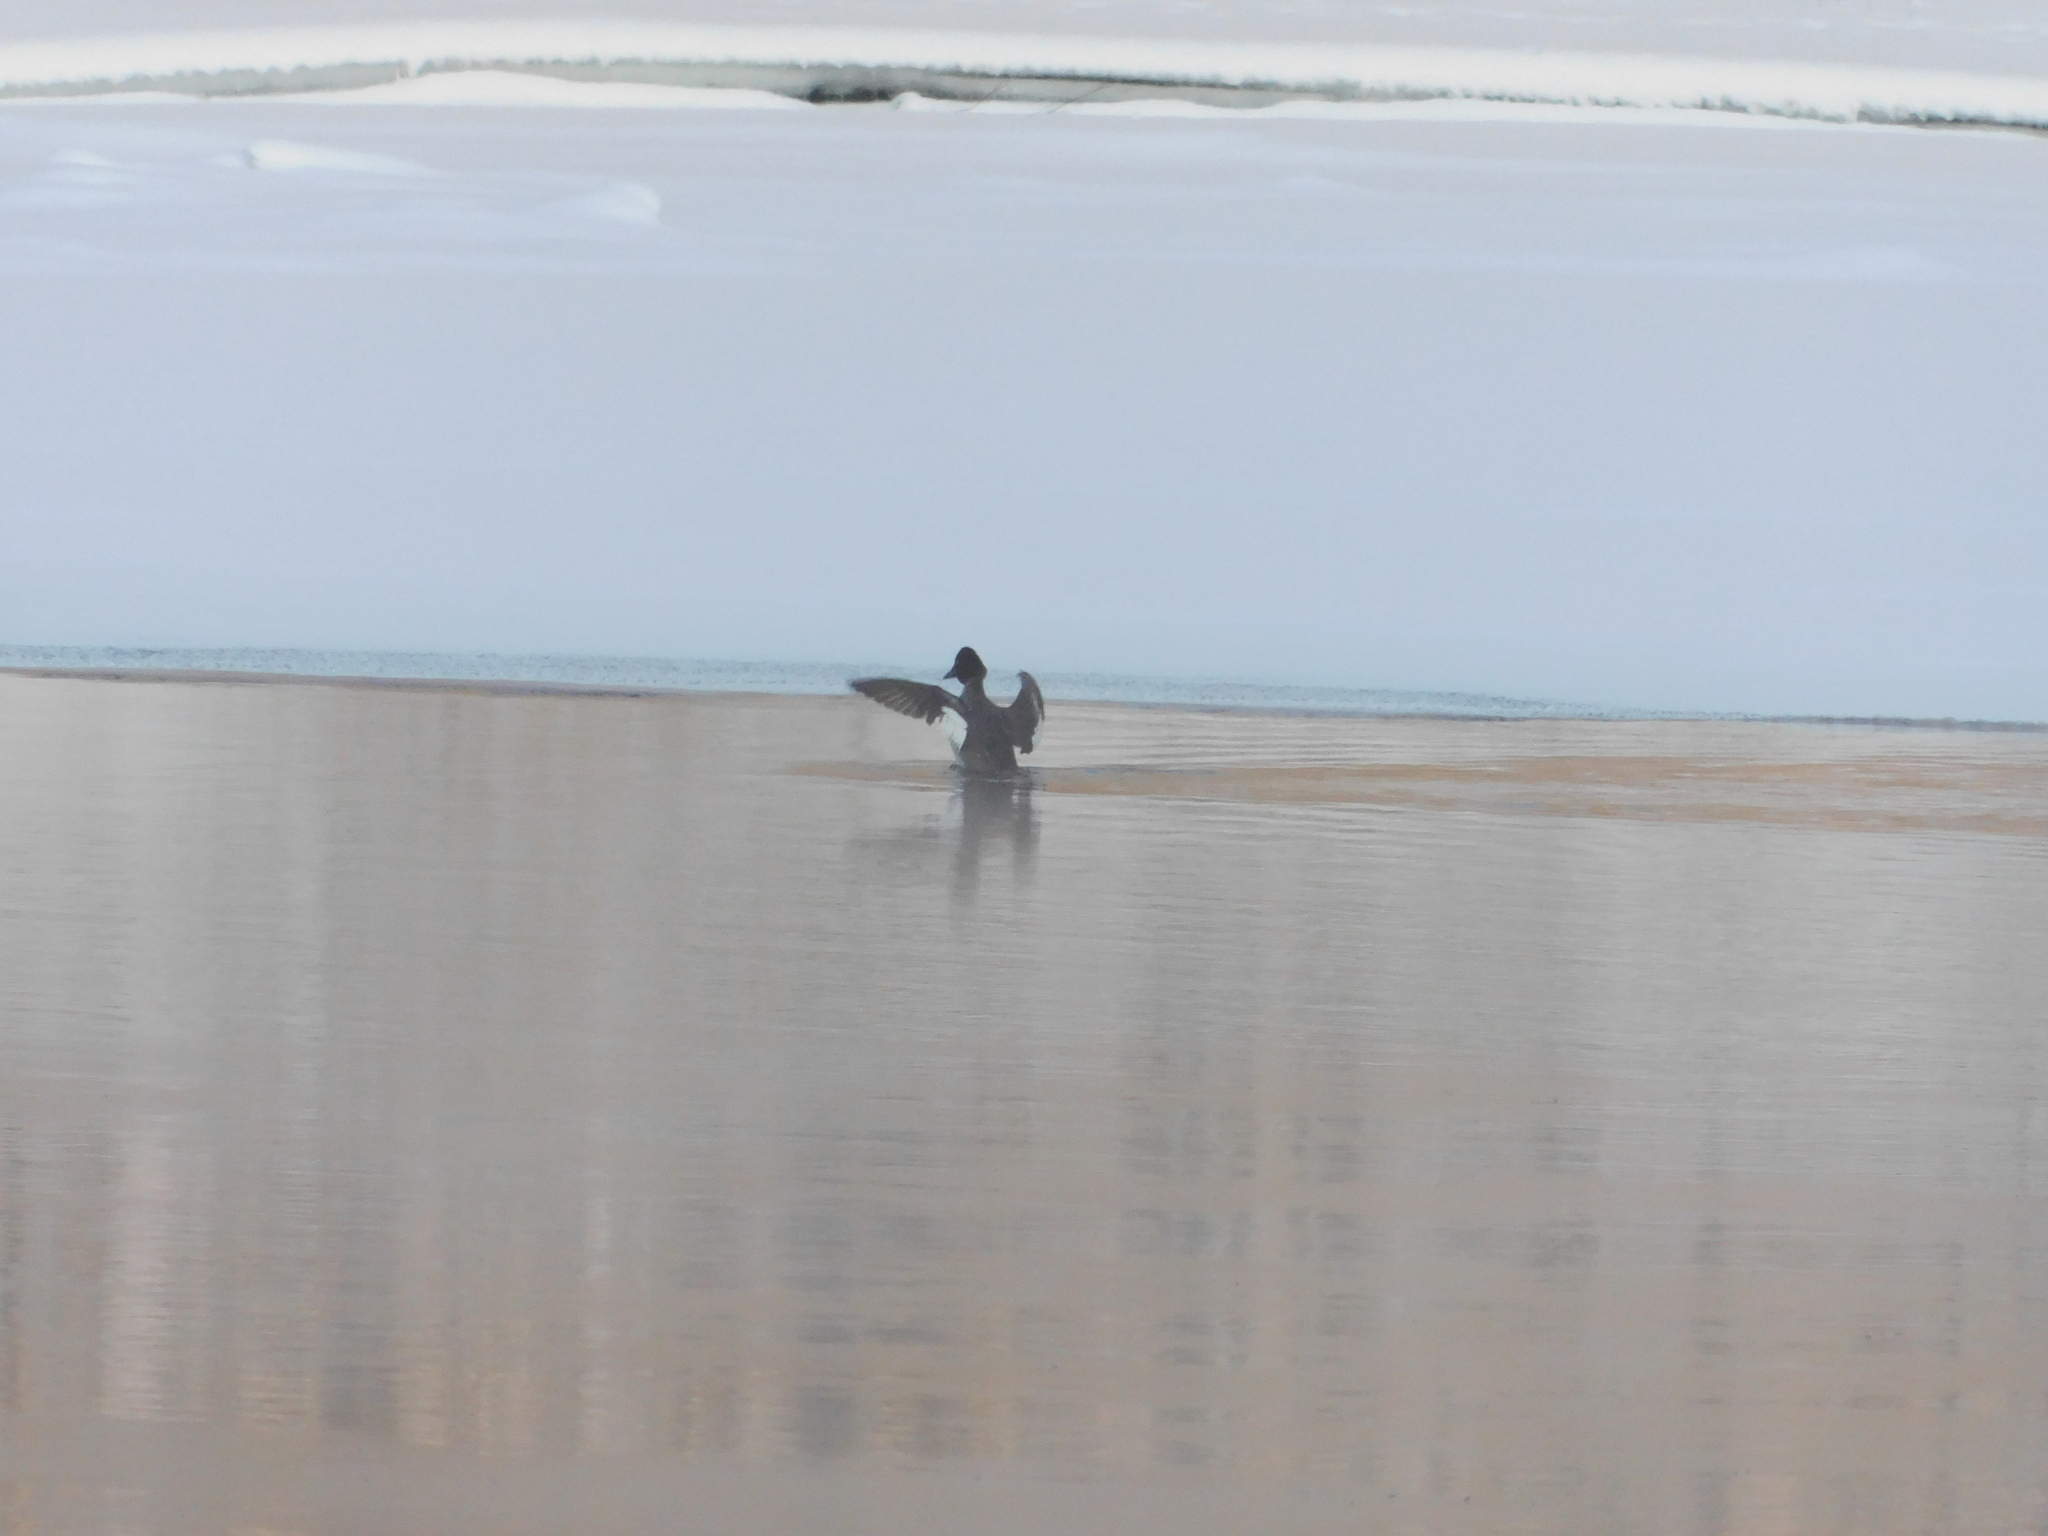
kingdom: Animalia
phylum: Chordata
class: Aves
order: Anseriformes
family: Anatidae
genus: Bucephala
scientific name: Bucephala clangula
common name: Common goldeneye
